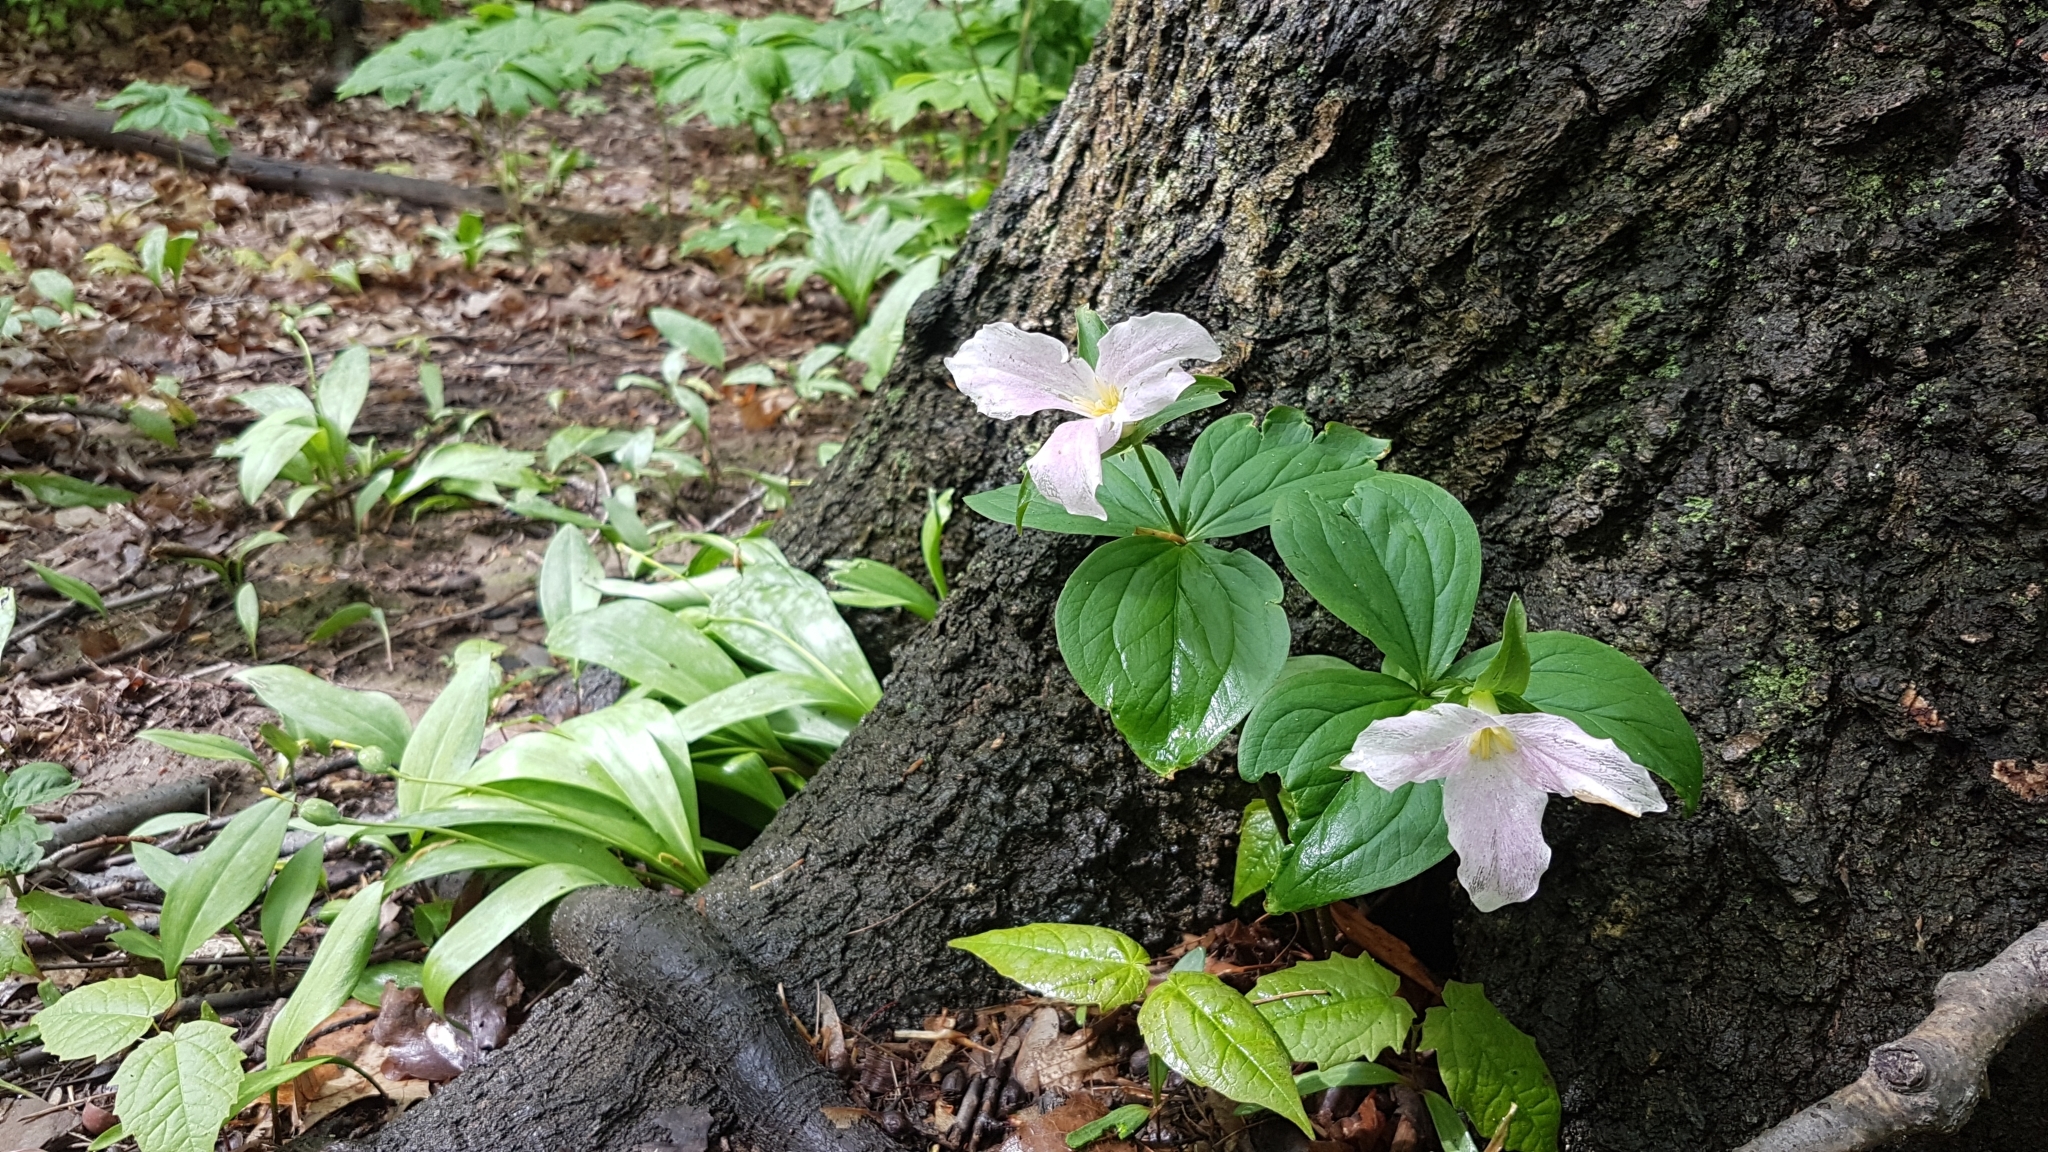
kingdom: Plantae
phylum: Tracheophyta
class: Liliopsida
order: Liliales
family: Melanthiaceae
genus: Trillium
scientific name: Trillium grandiflorum
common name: Great white trillium
